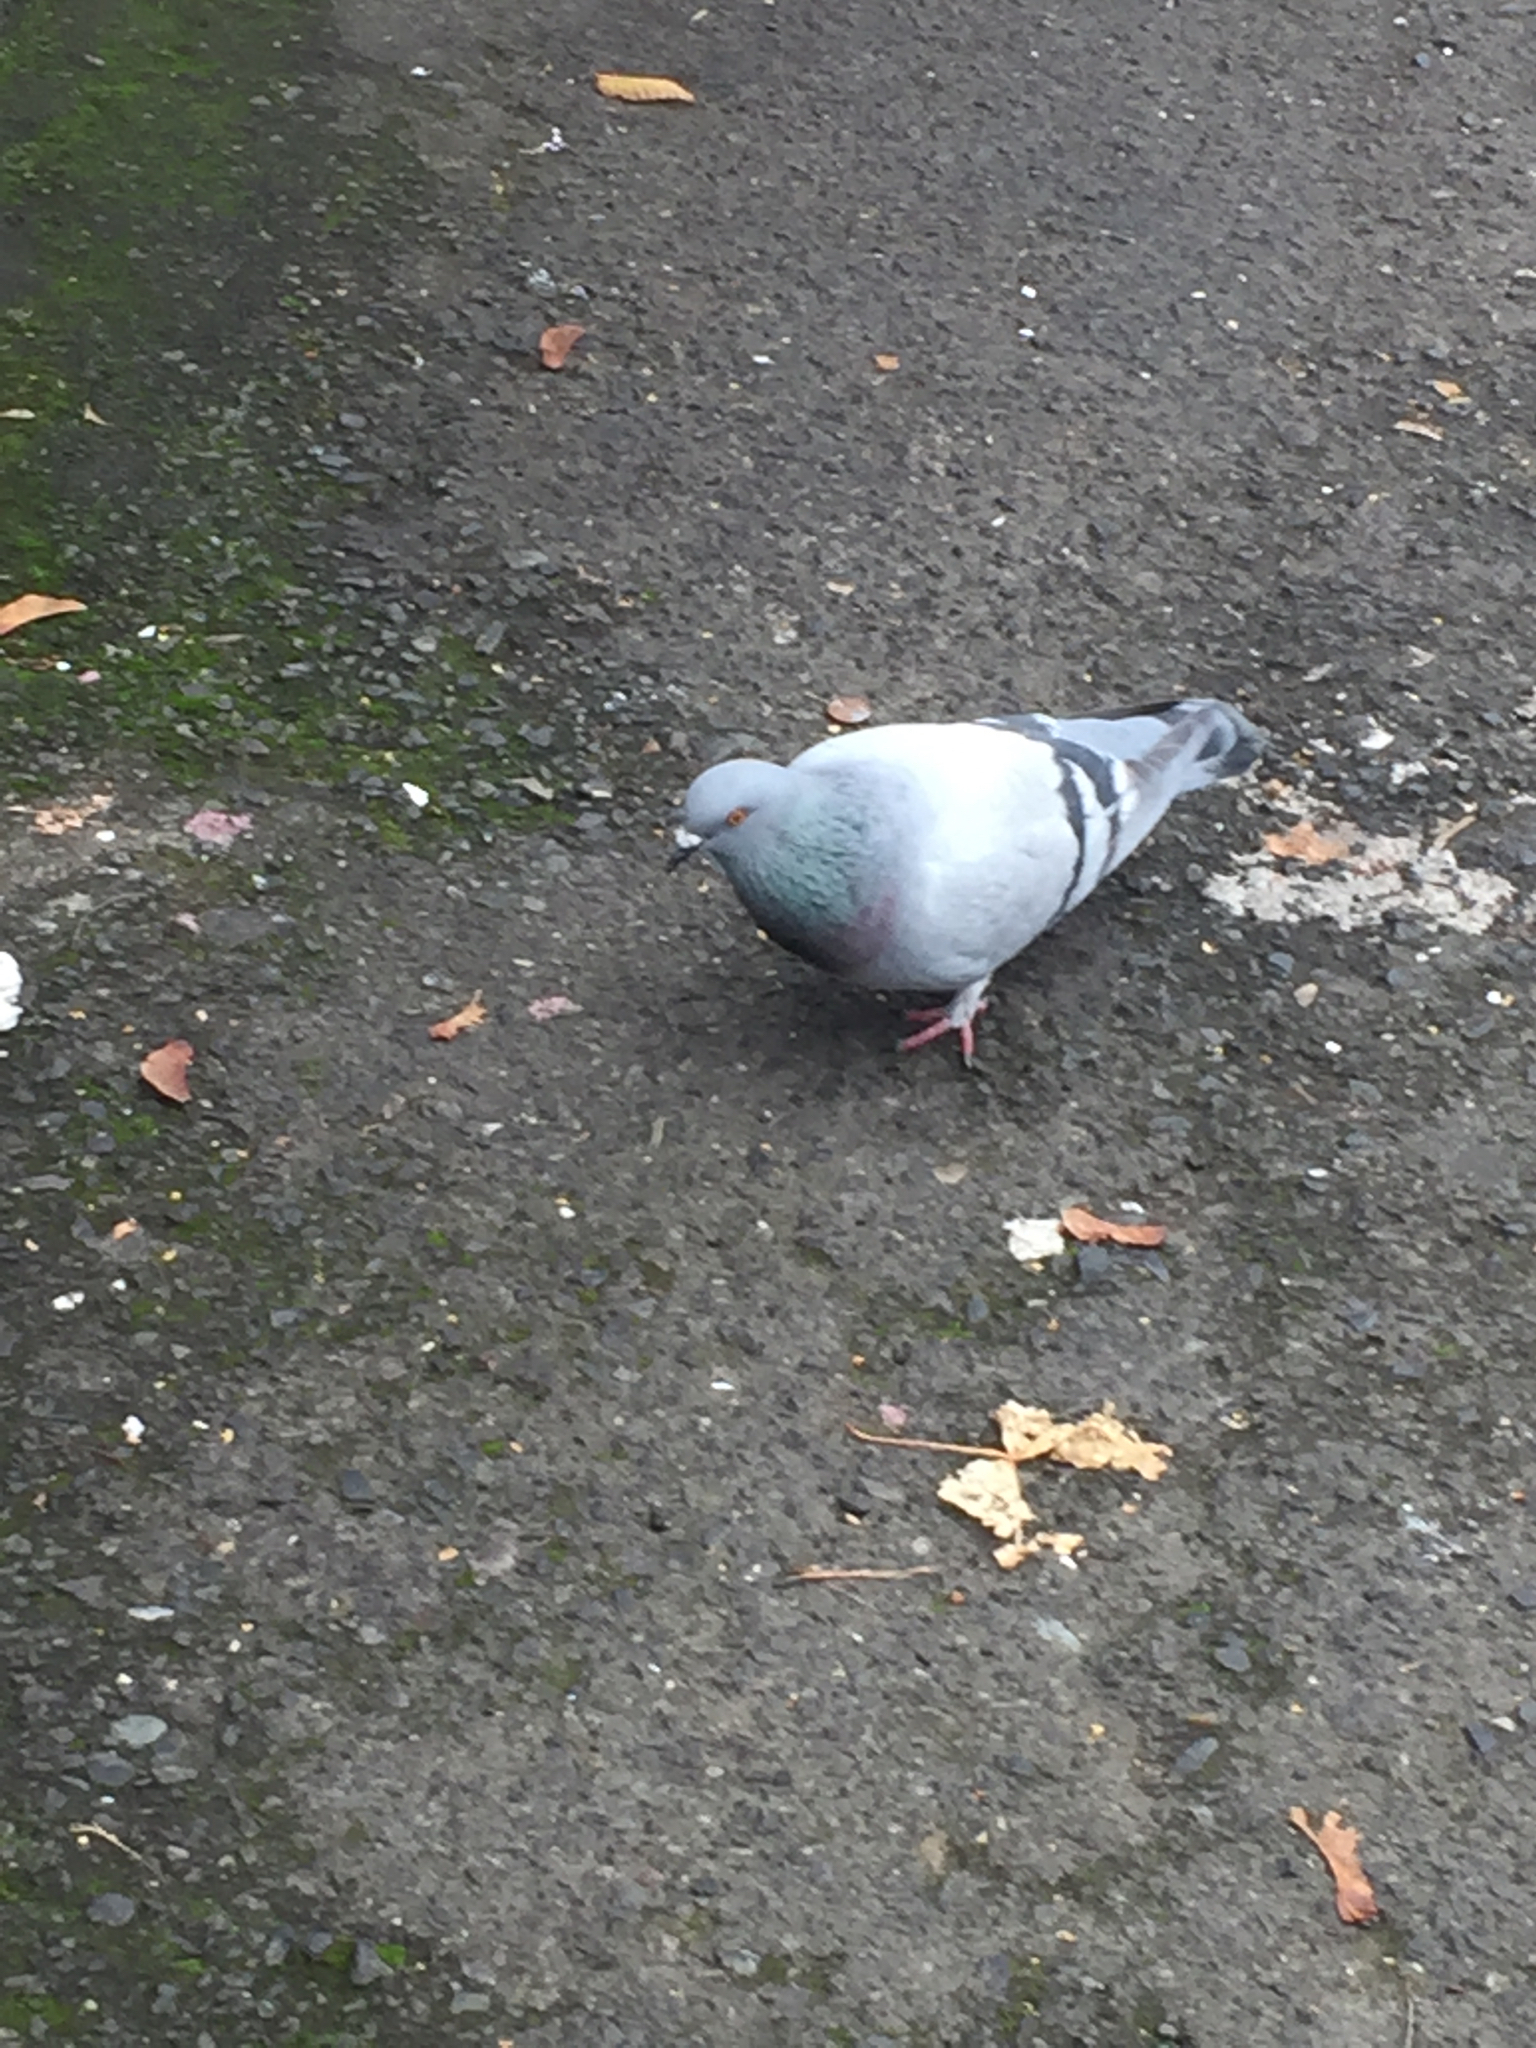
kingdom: Animalia
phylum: Chordata
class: Aves
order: Columbiformes
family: Columbidae
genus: Columba
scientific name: Columba livia
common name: Rock pigeon
